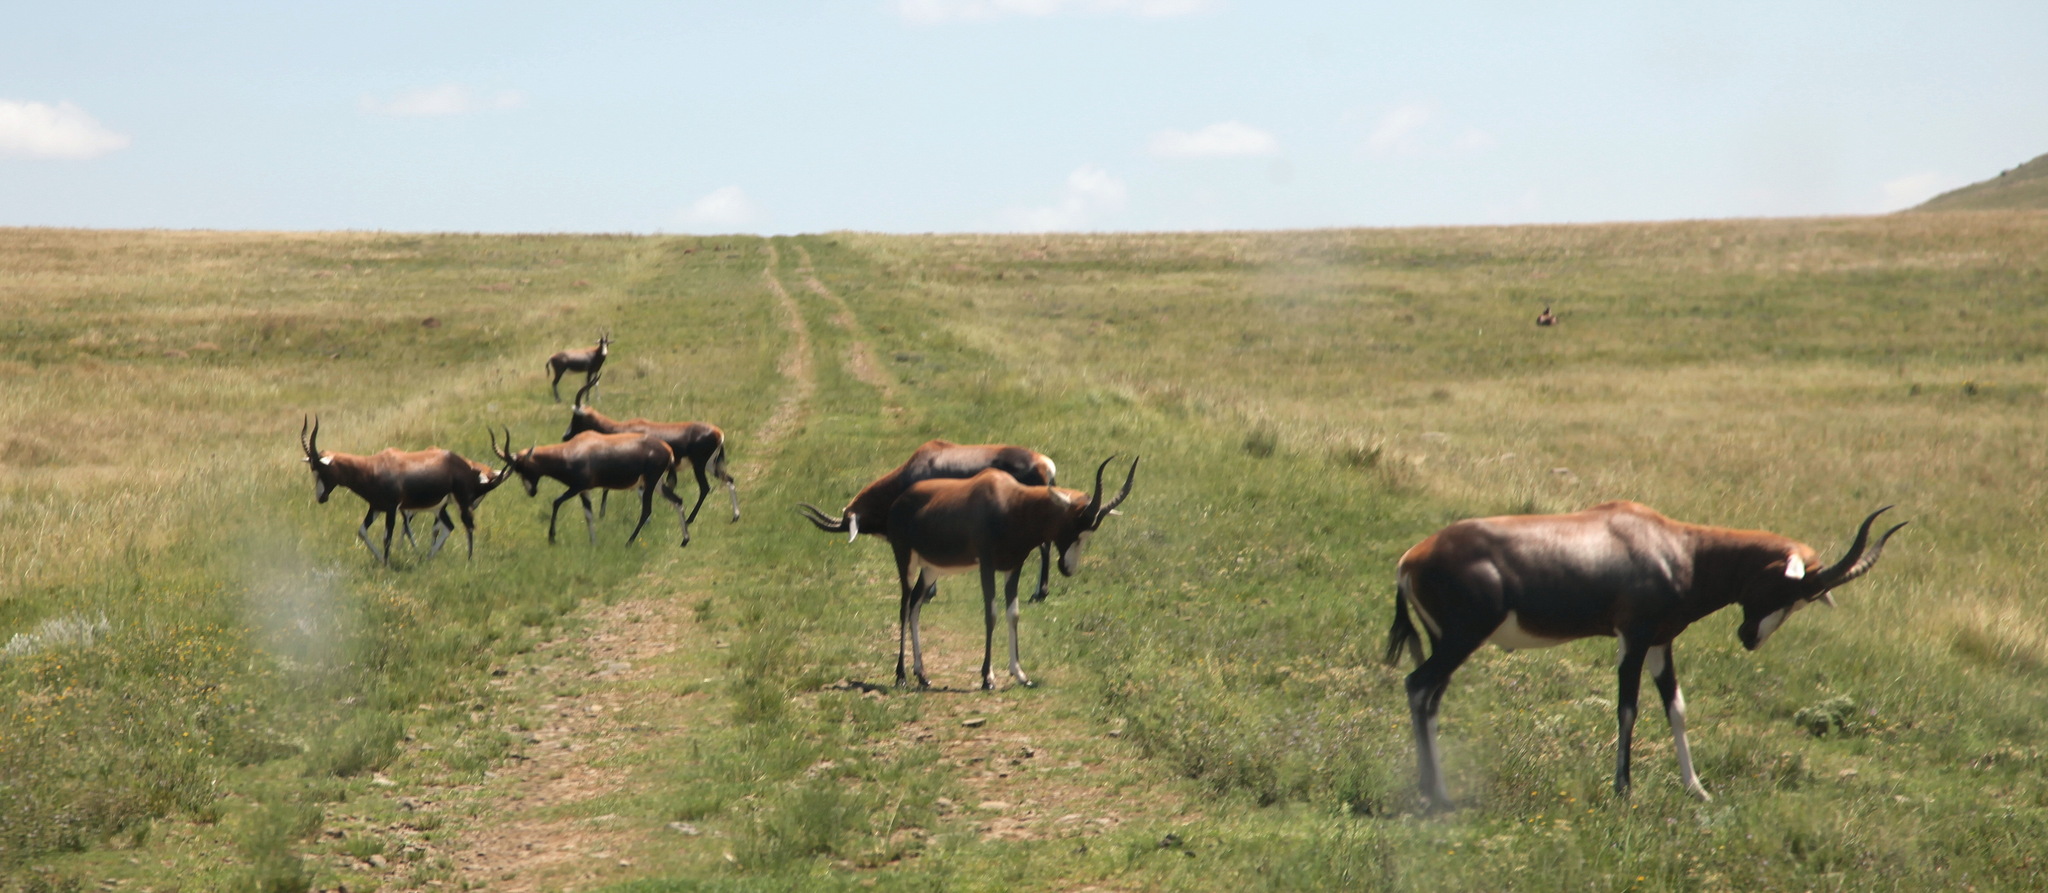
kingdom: Animalia
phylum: Chordata
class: Mammalia
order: Artiodactyla
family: Bovidae
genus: Damaliscus
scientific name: Damaliscus pygargus
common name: Bontebok
